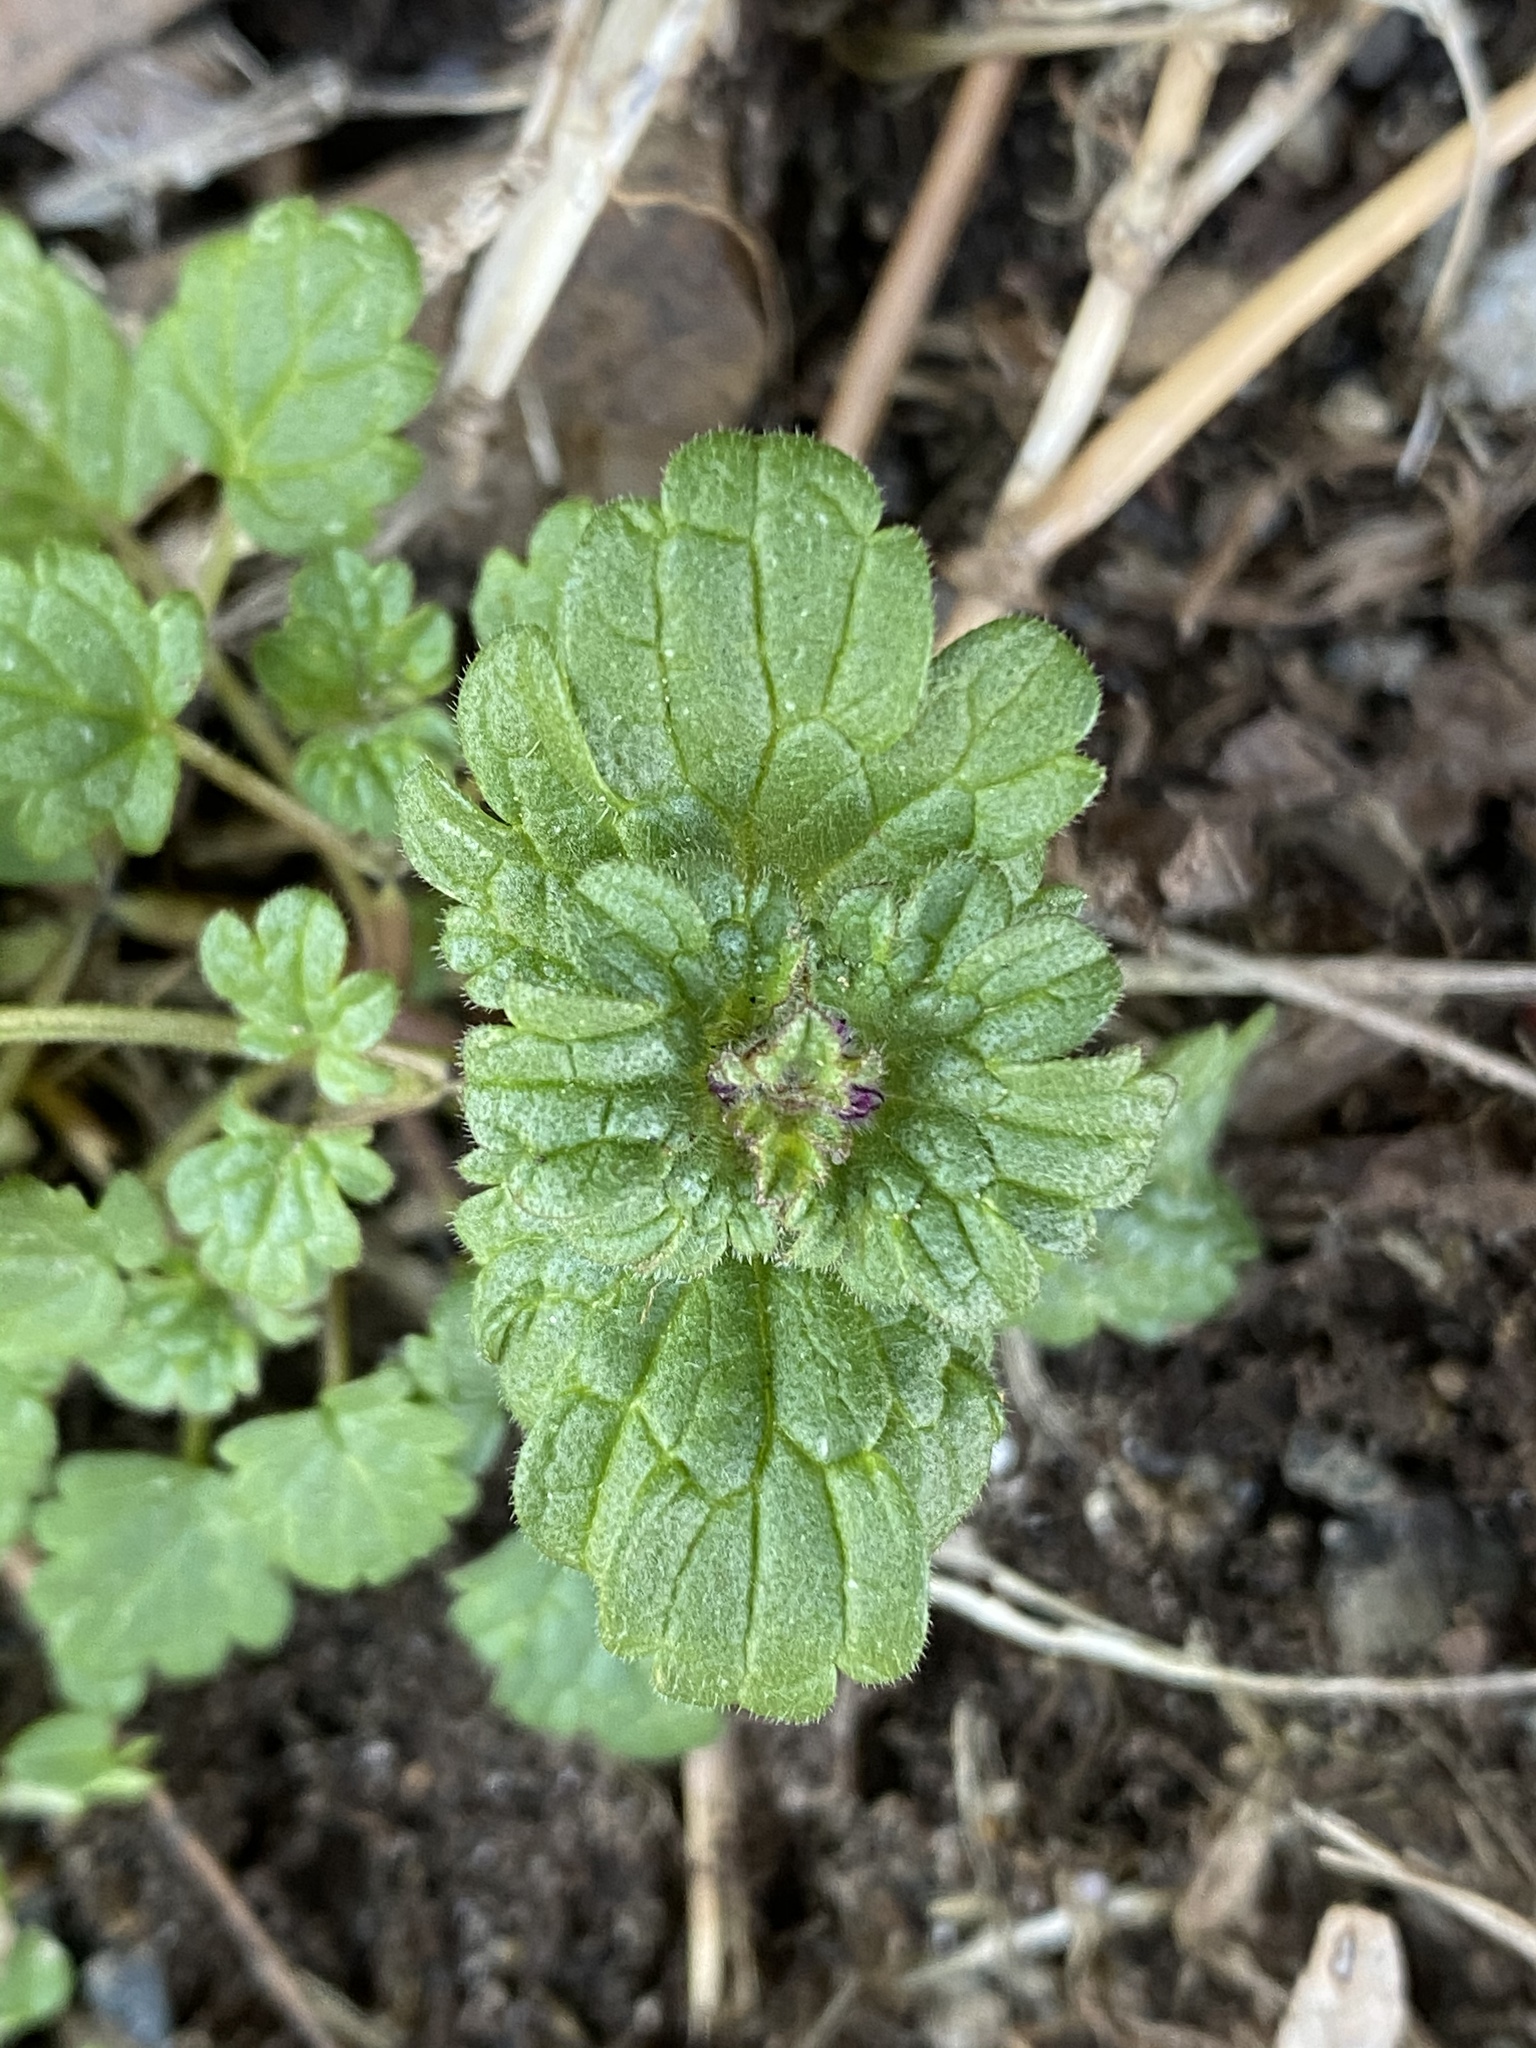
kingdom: Plantae
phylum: Tracheophyta
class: Magnoliopsida
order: Lamiales
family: Lamiaceae
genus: Lamium
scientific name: Lamium amplexicaule
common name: Henbit dead-nettle
